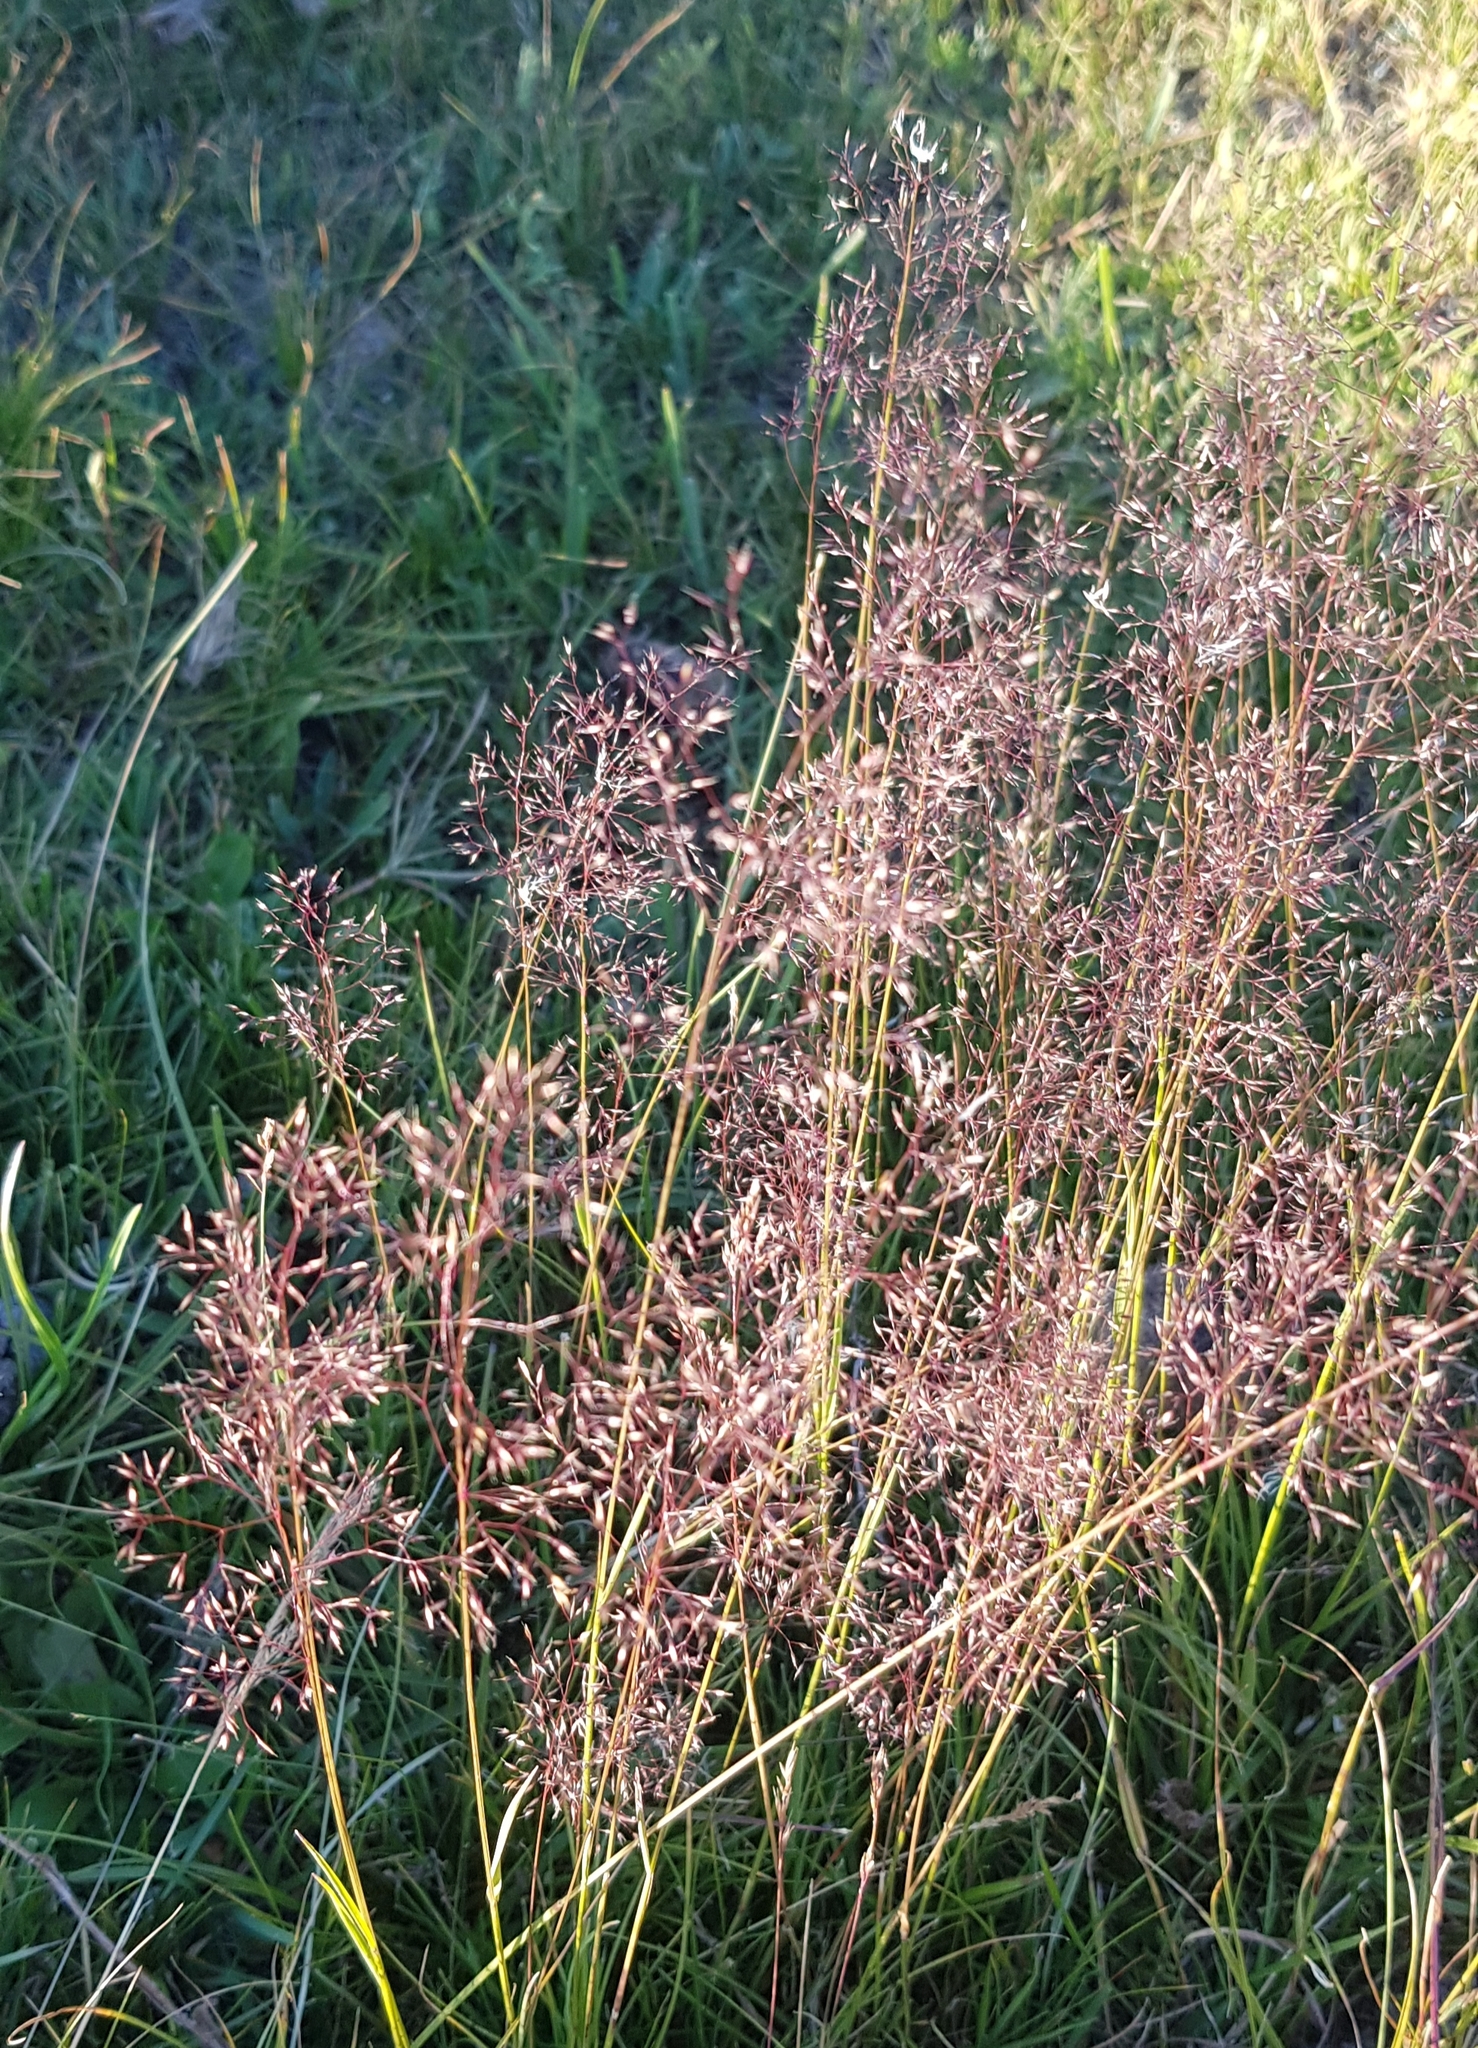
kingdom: Plantae
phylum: Tracheophyta
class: Liliopsida
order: Poales
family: Poaceae
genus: Agrostis
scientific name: Agrostis gigantea
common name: Black bent
